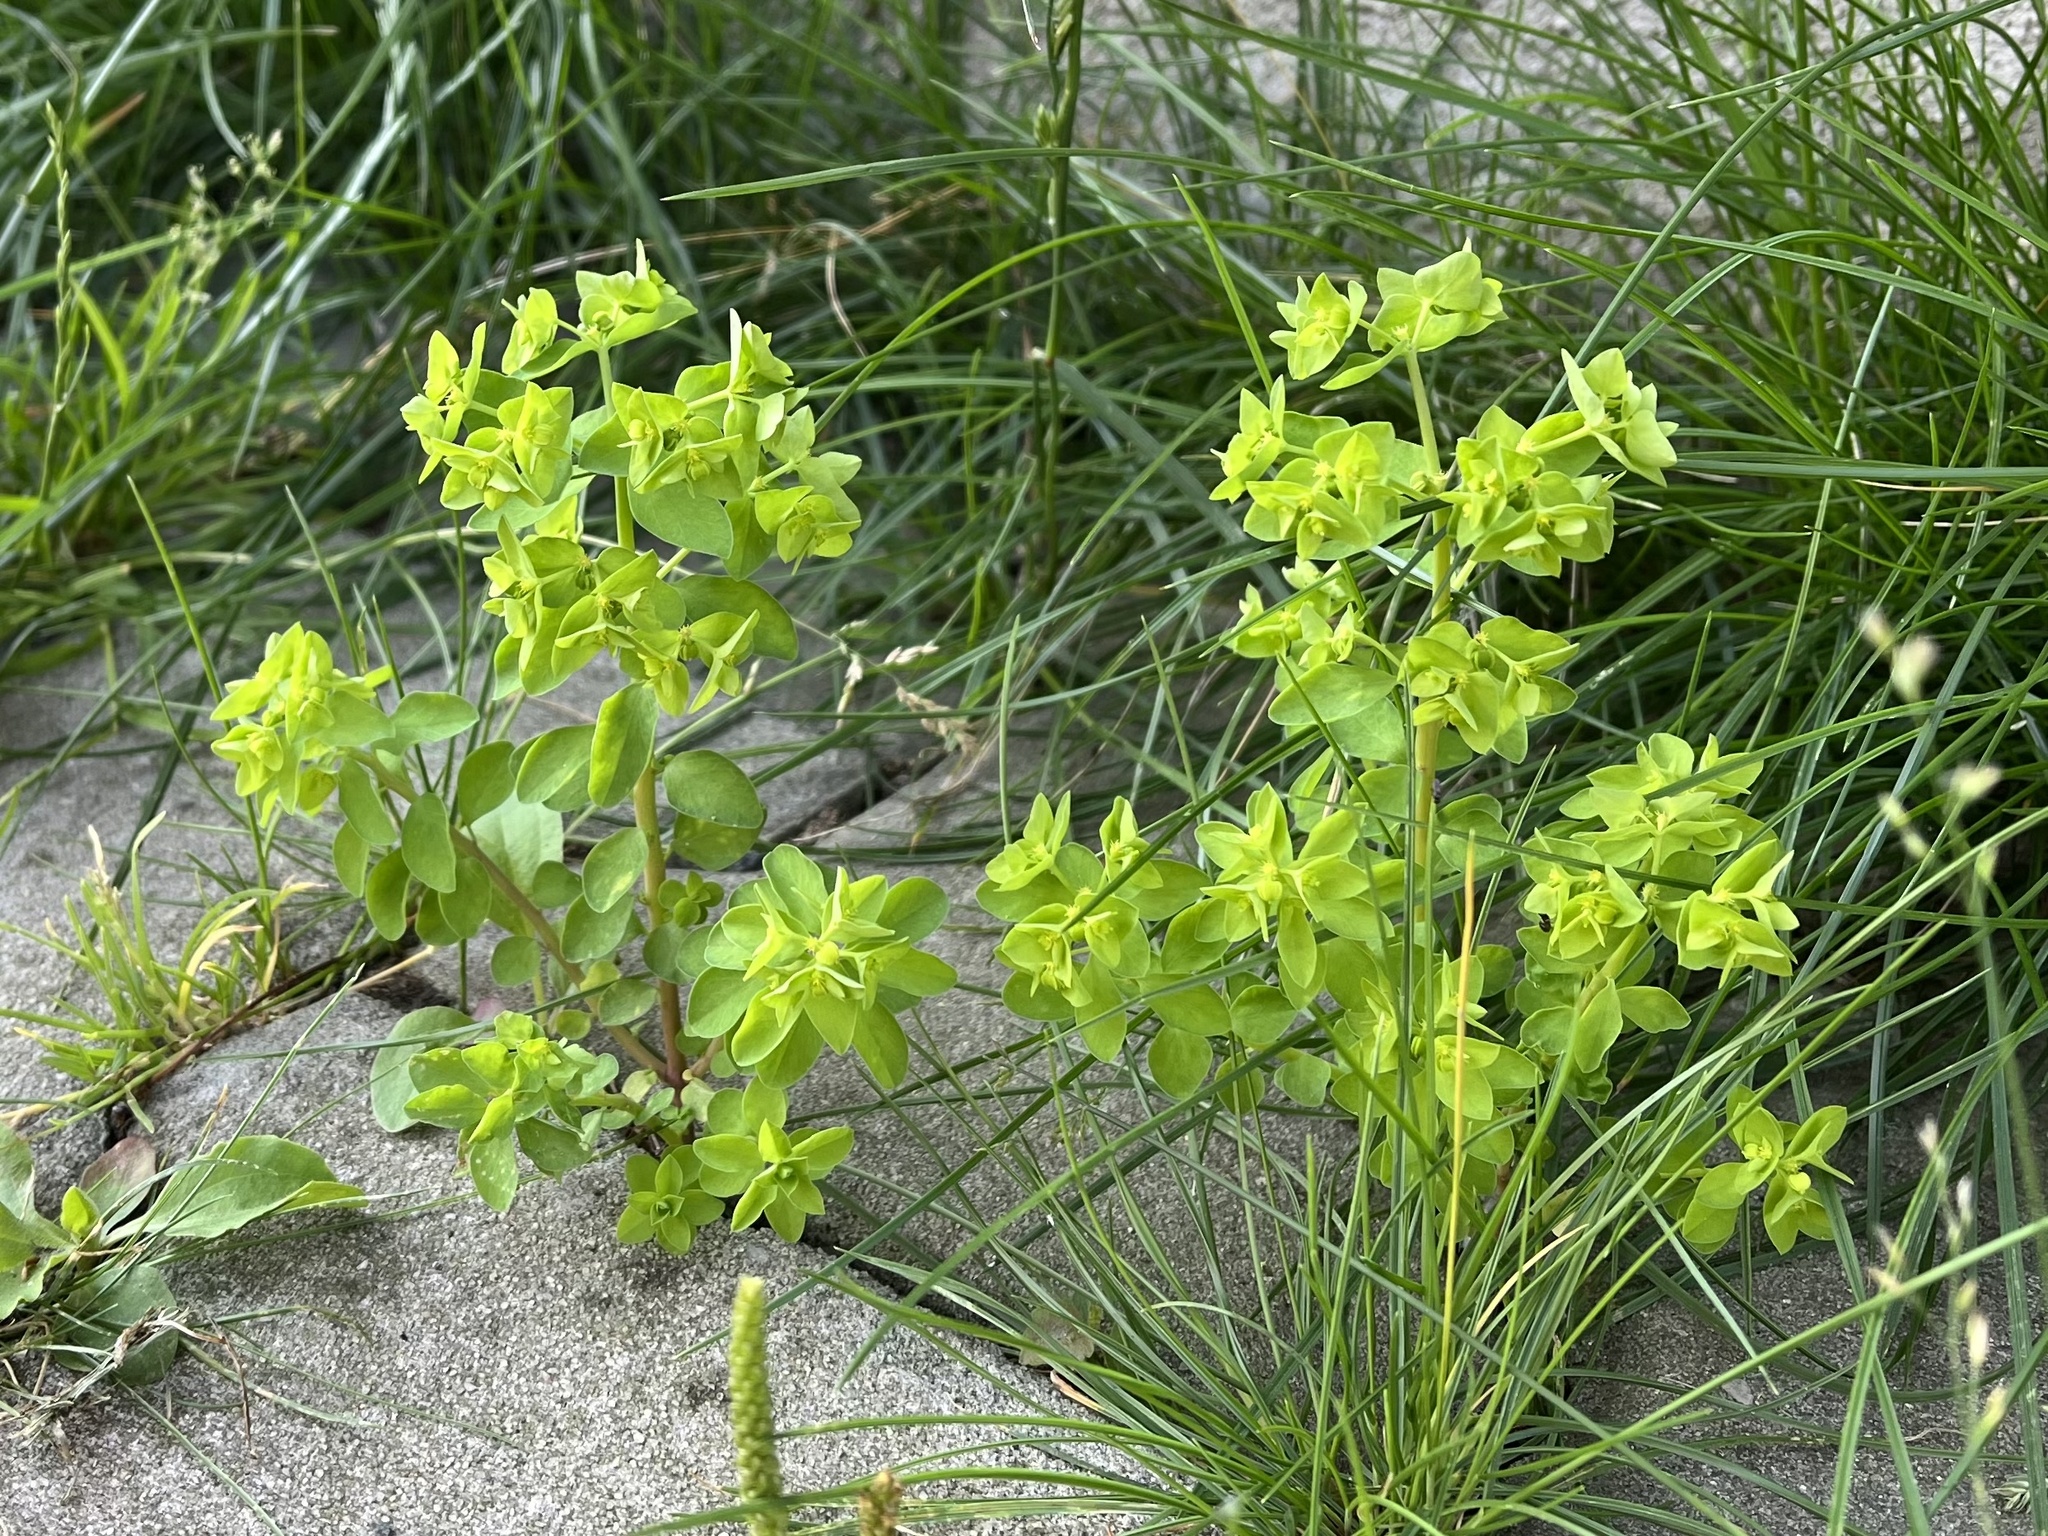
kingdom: Plantae
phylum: Tracheophyta
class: Magnoliopsida
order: Malpighiales
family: Euphorbiaceae
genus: Euphorbia
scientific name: Euphorbia peplus
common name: Petty spurge
